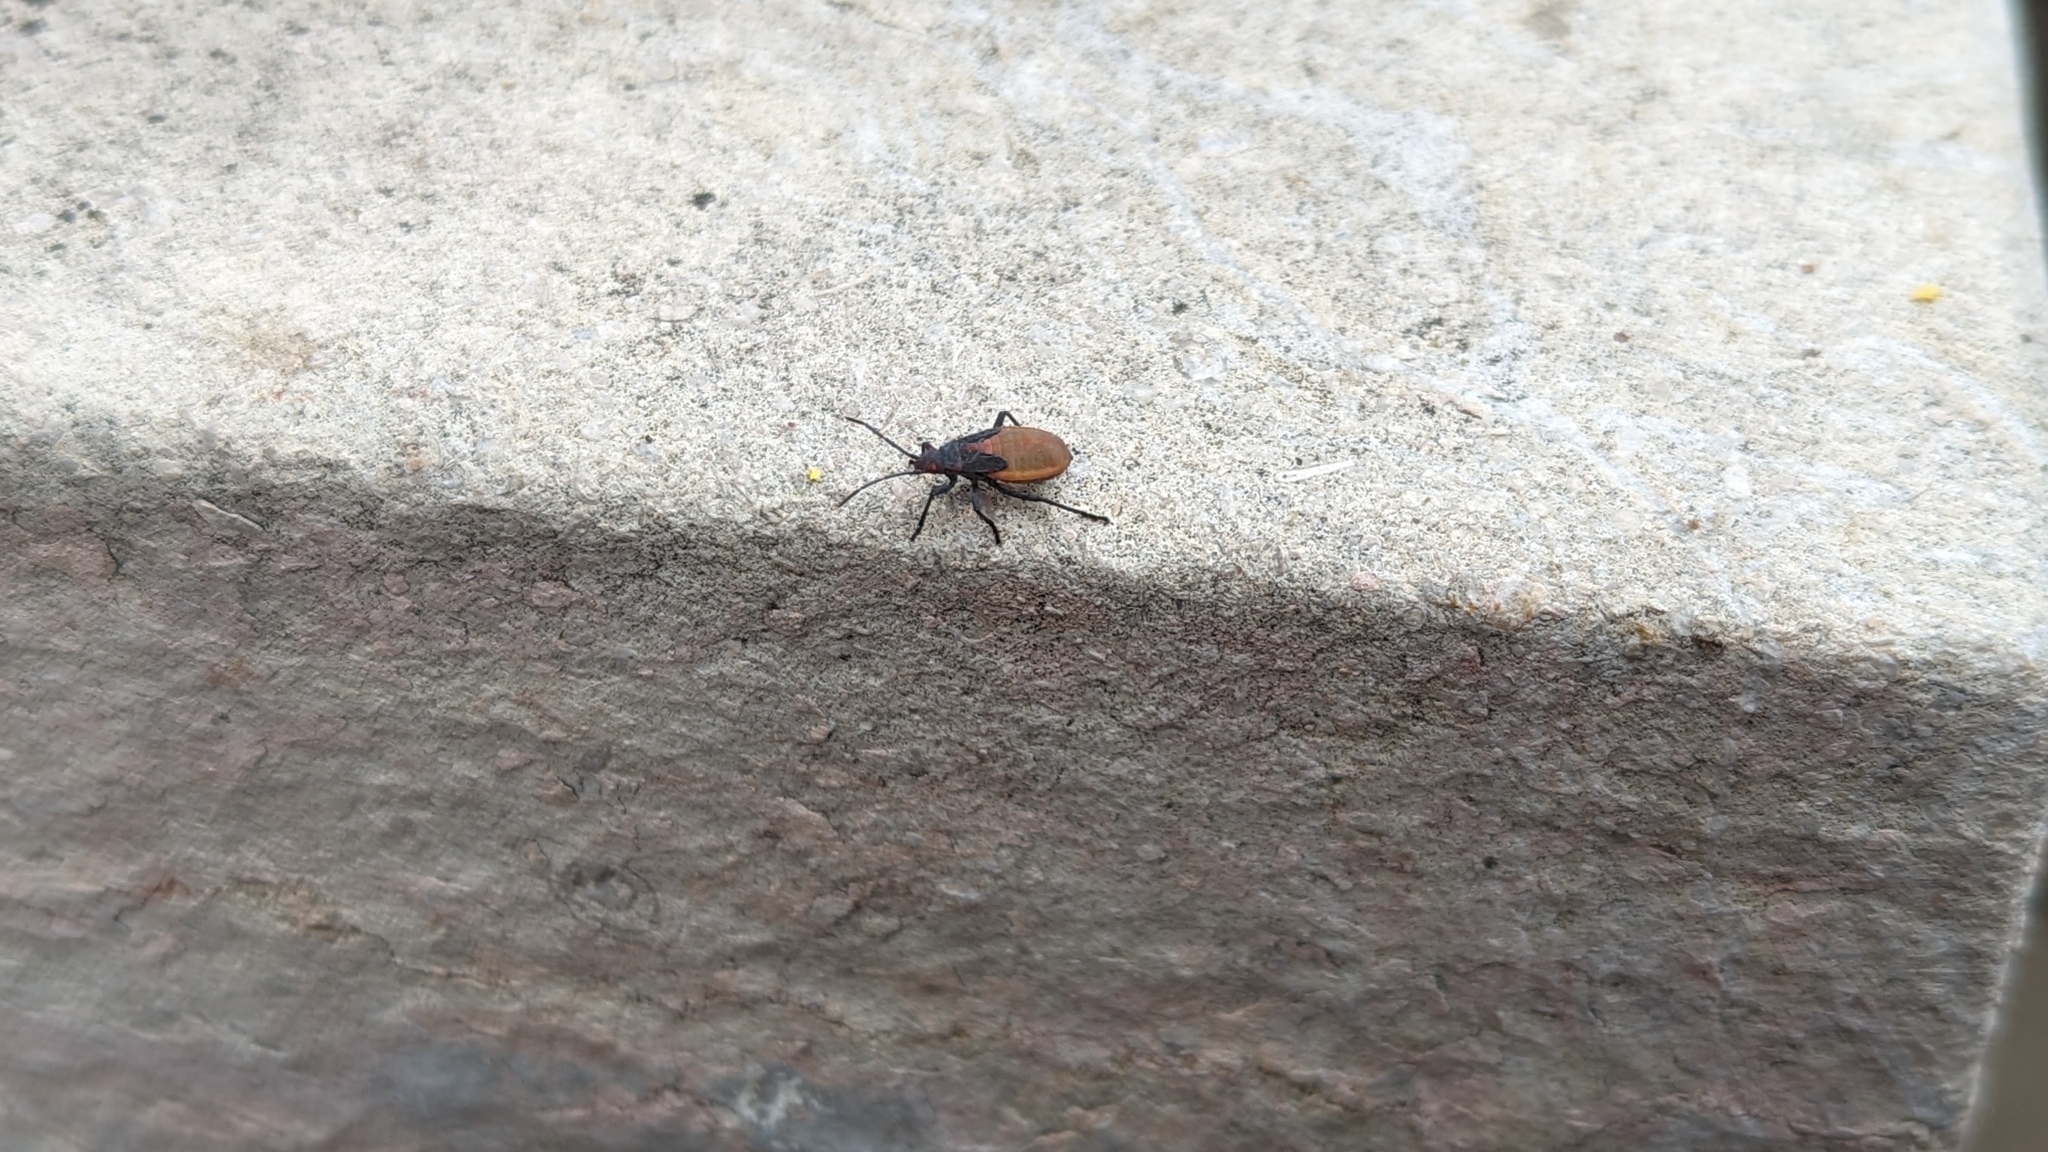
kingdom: Animalia
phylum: Arthropoda
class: Insecta
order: Hemiptera
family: Rhopalidae
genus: Jadera
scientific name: Jadera haematoloma
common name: Red-shouldered bug
